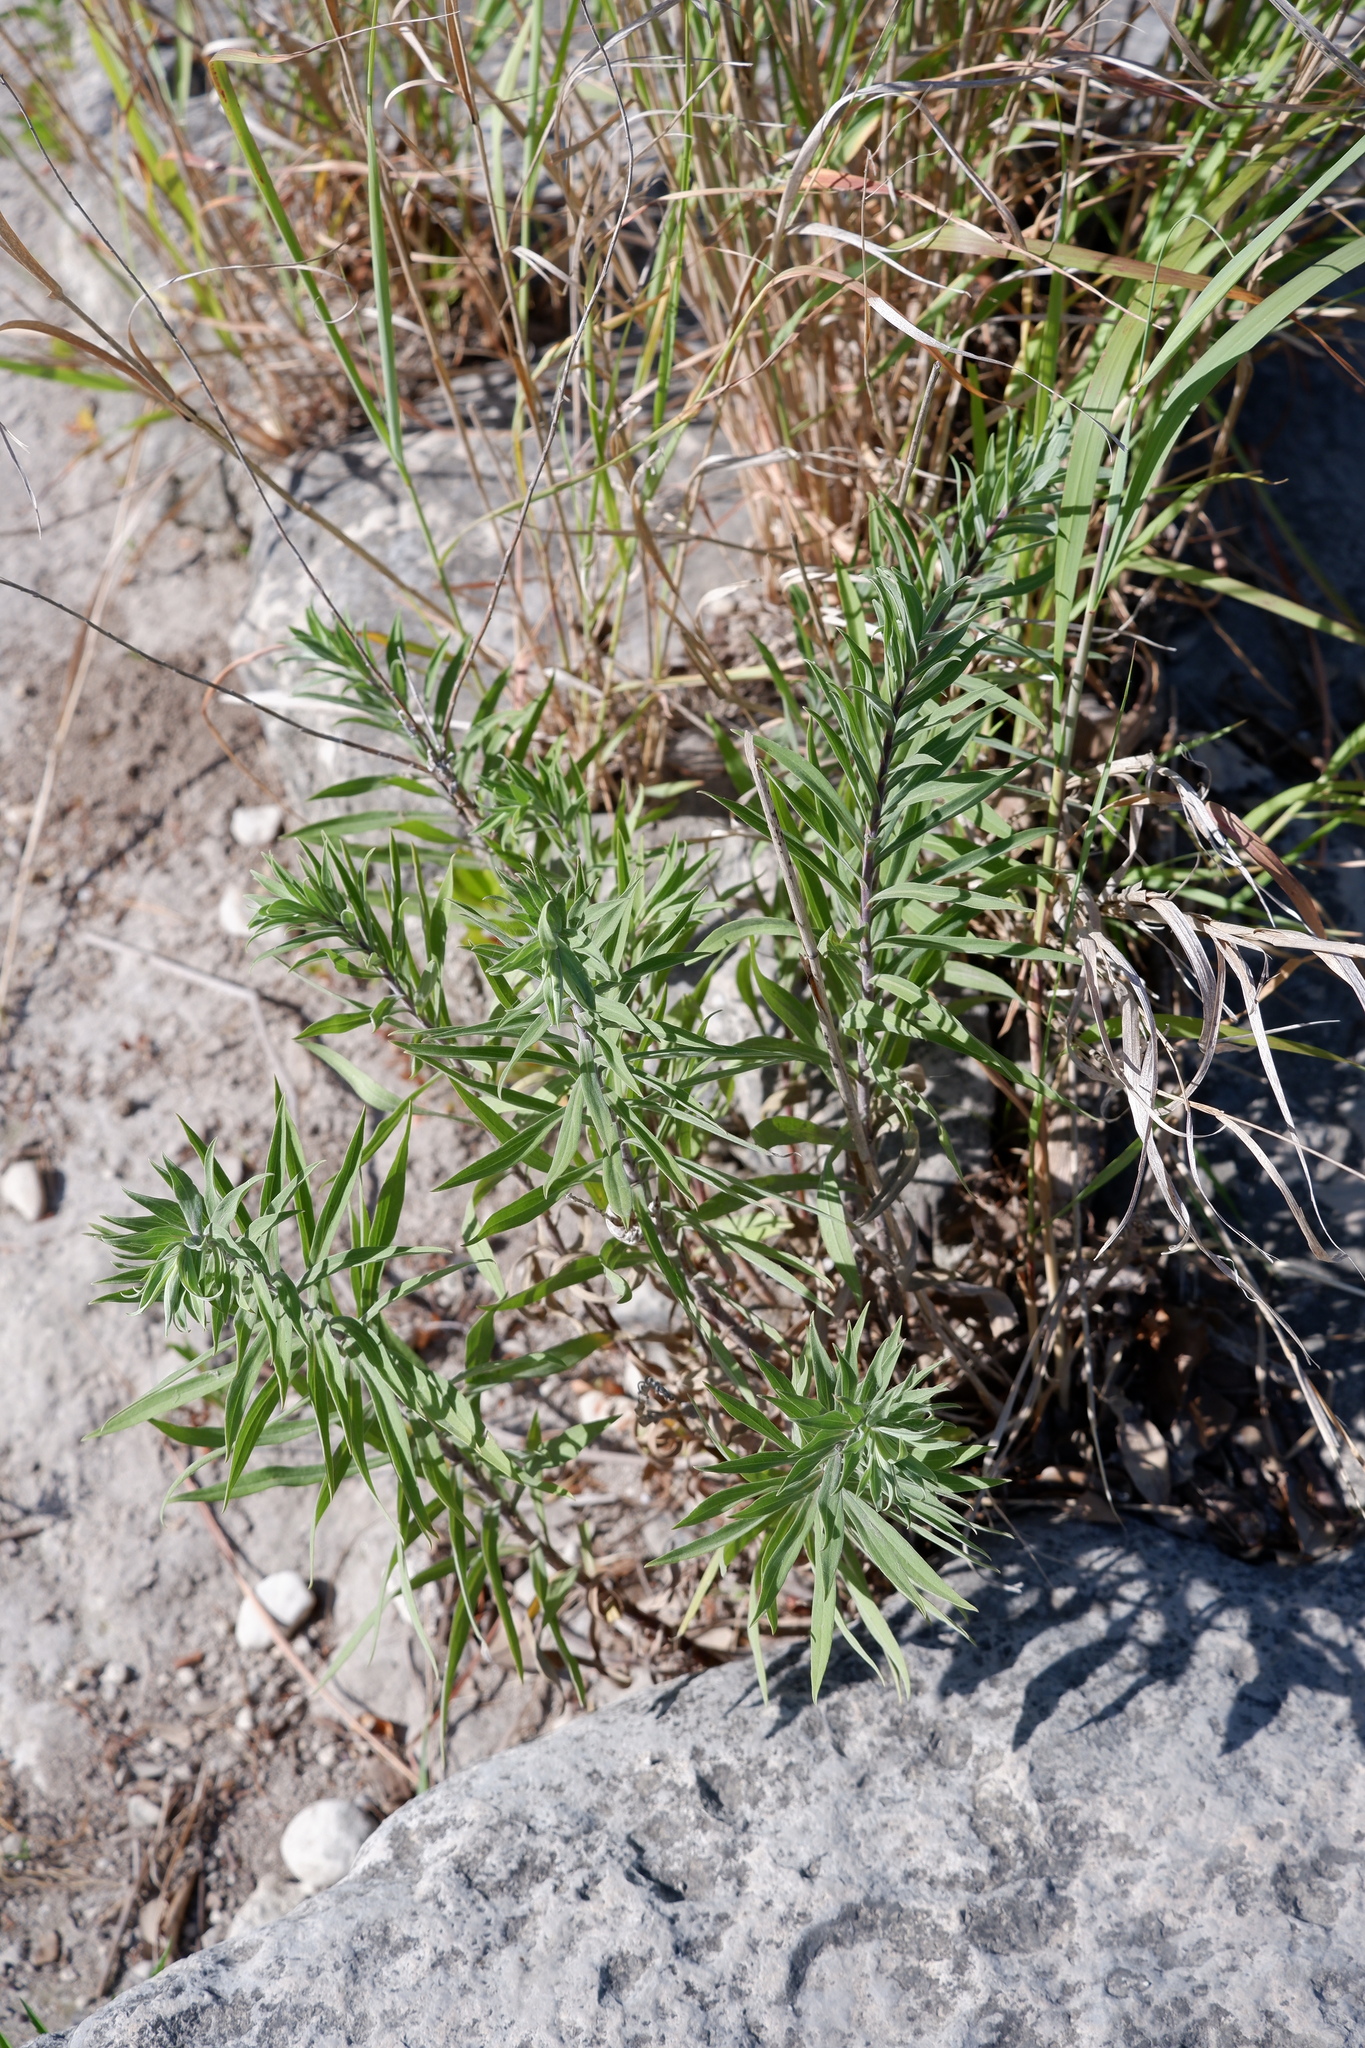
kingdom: Plantae
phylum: Tracheophyta
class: Magnoliopsida
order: Asterales
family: Asteraceae
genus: Solidago
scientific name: Solidago juliae
